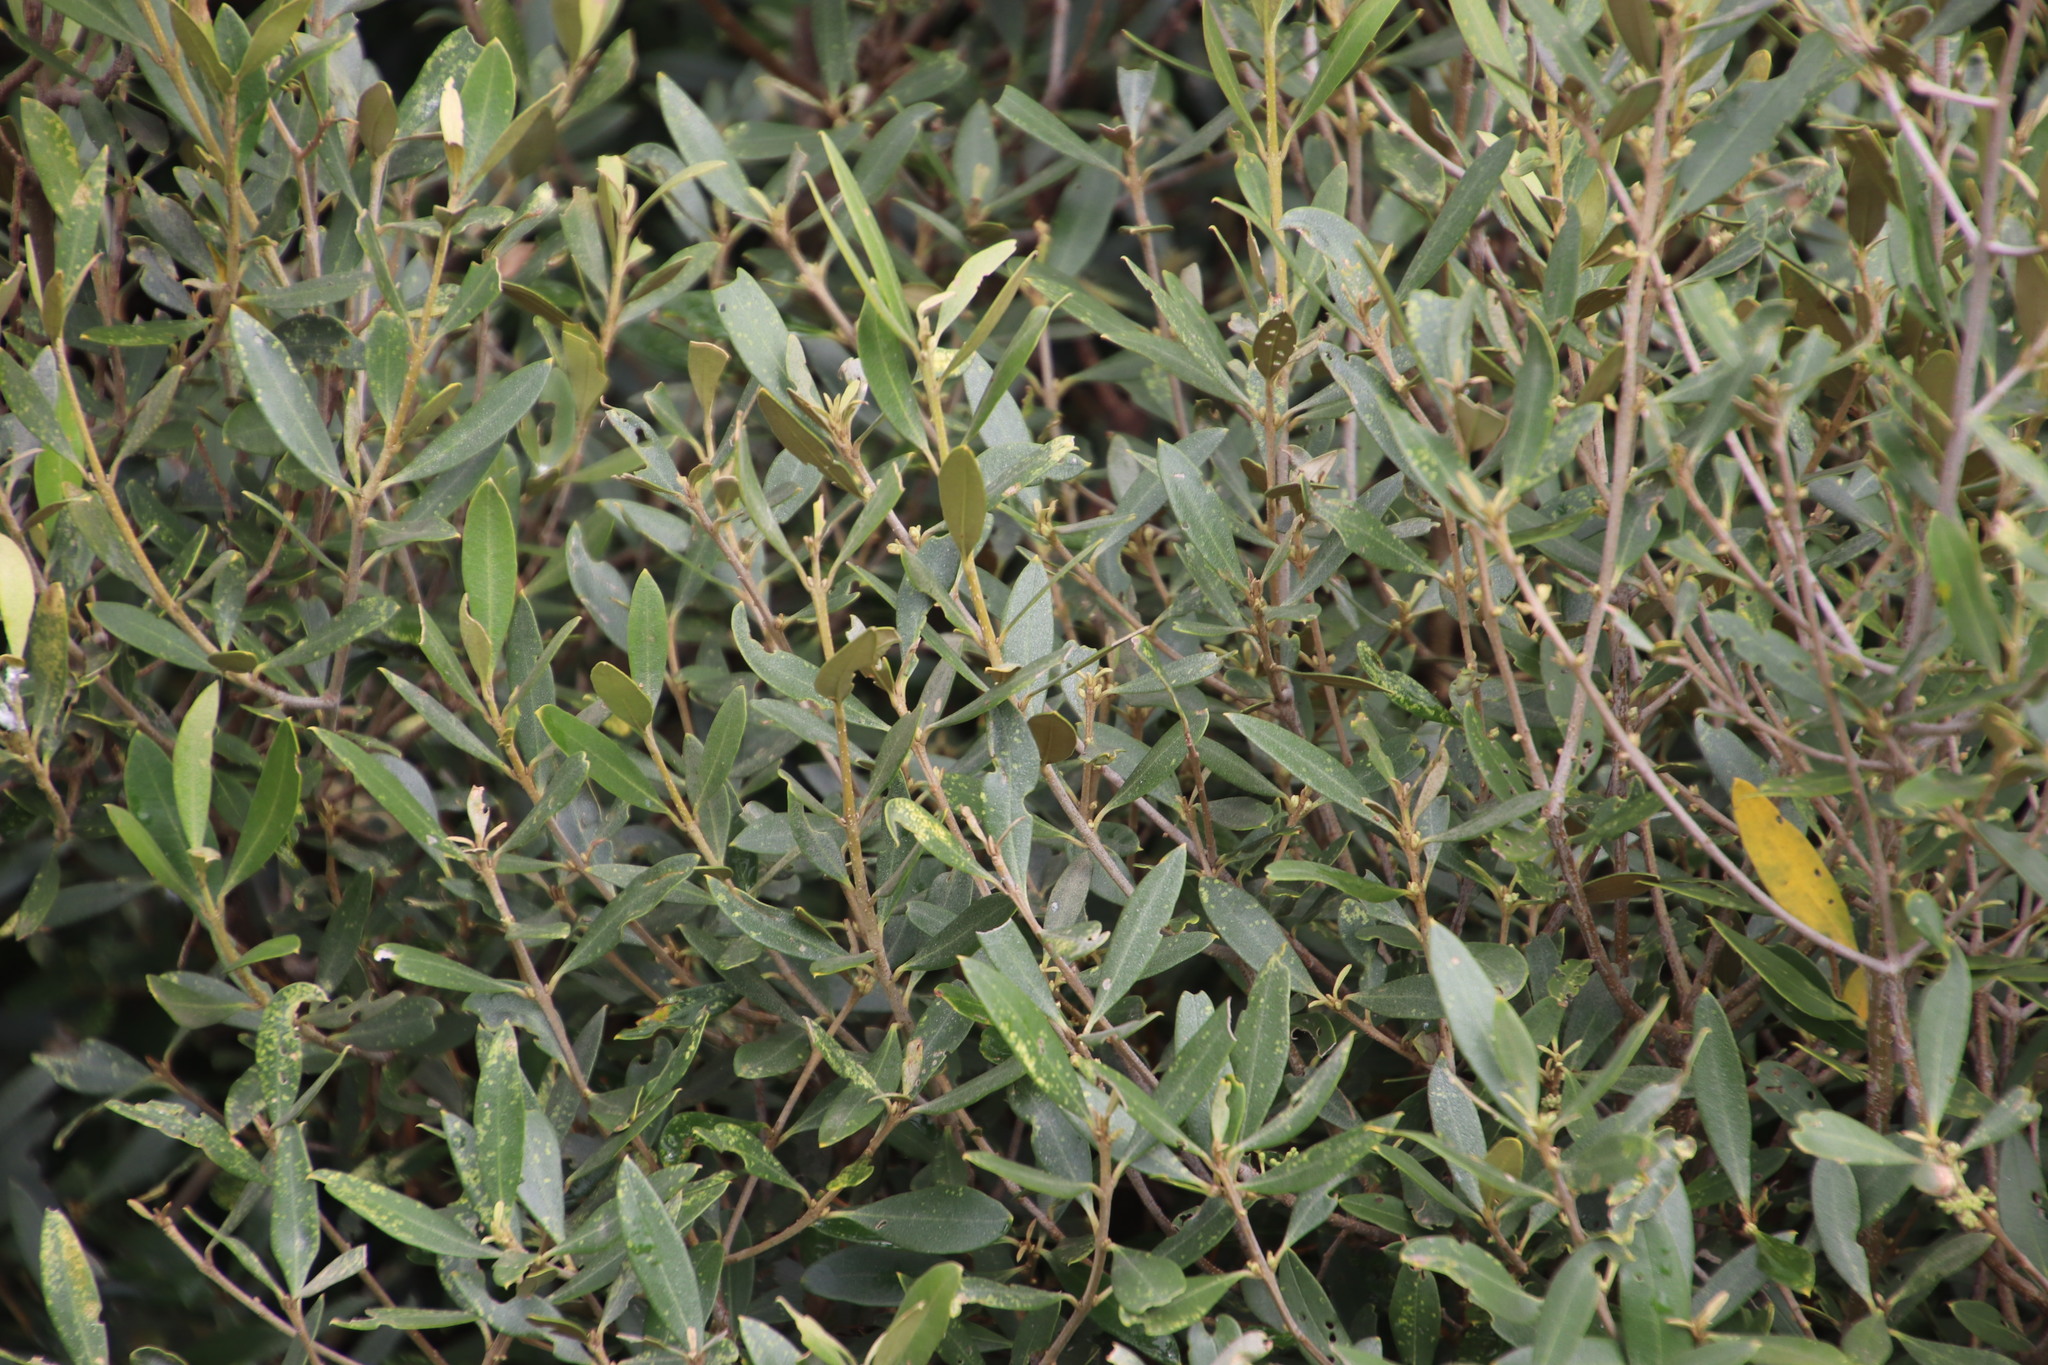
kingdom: Plantae
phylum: Tracheophyta
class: Magnoliopsida
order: Lamiales
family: Oleaceae
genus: Olea
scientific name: Olea europaea
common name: Olive
